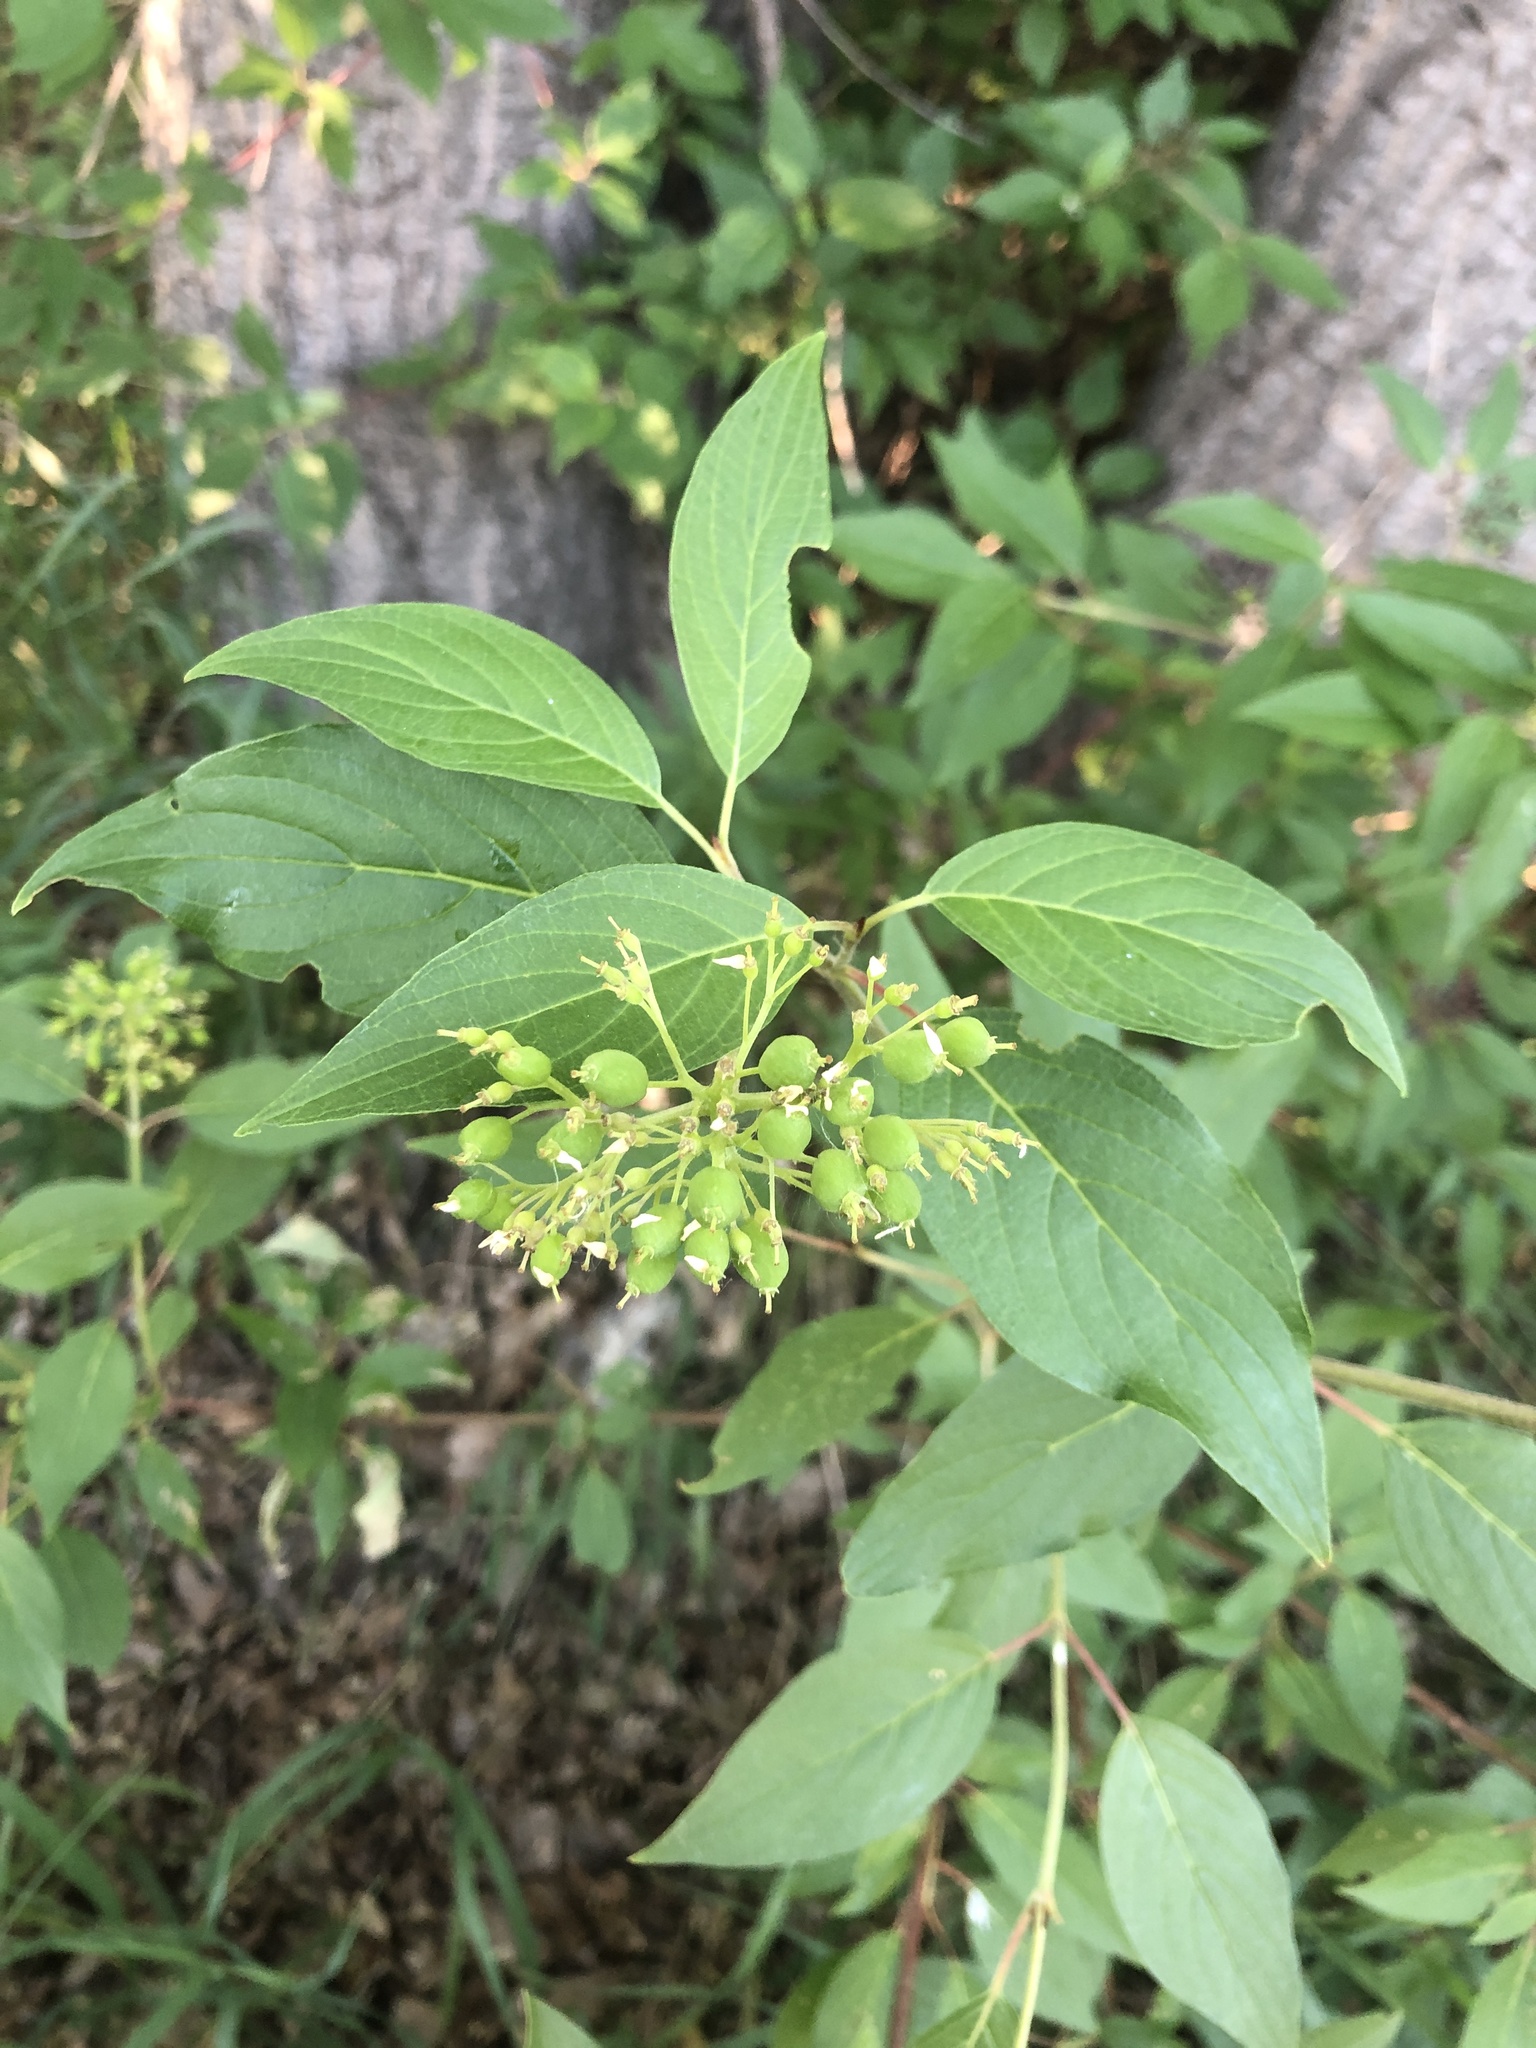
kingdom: Plantae
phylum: Tracheophyta
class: Magnoliopsida
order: Cornales
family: Cornaceae
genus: Cornus
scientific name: Cornus sericea
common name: Red-osier dogwood
